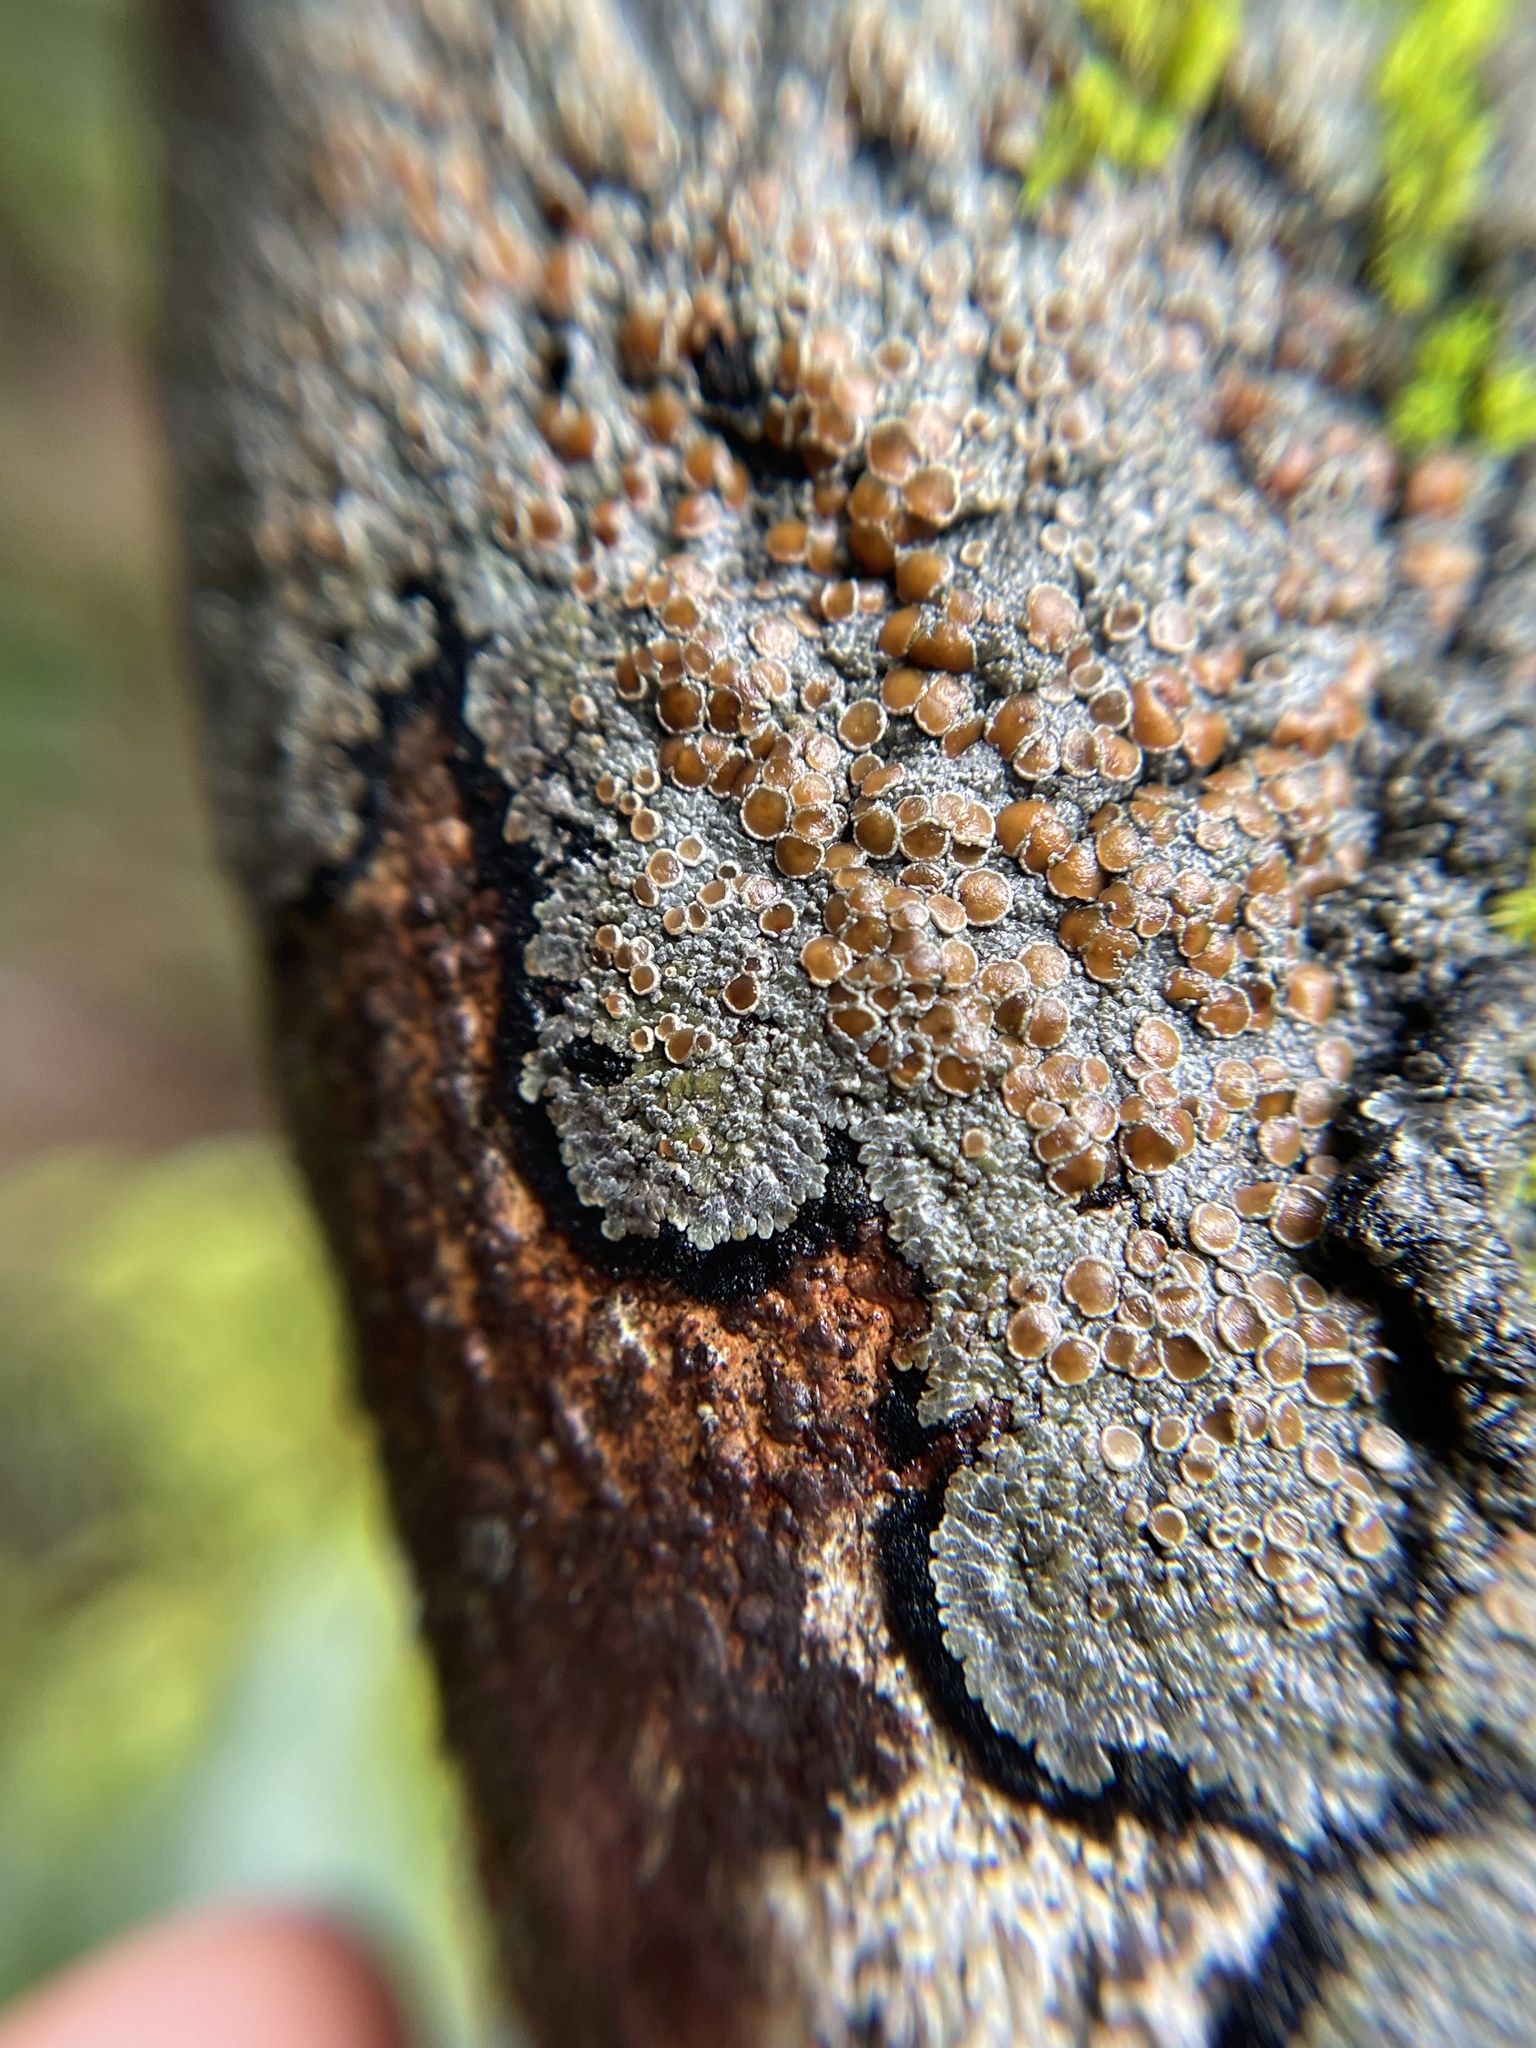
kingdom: Fungi
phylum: Ascomycota
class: Lecanoromycetes
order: Peltigerales
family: Pannariaceae
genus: Lepidocollema
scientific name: Lepidocollema marianum
